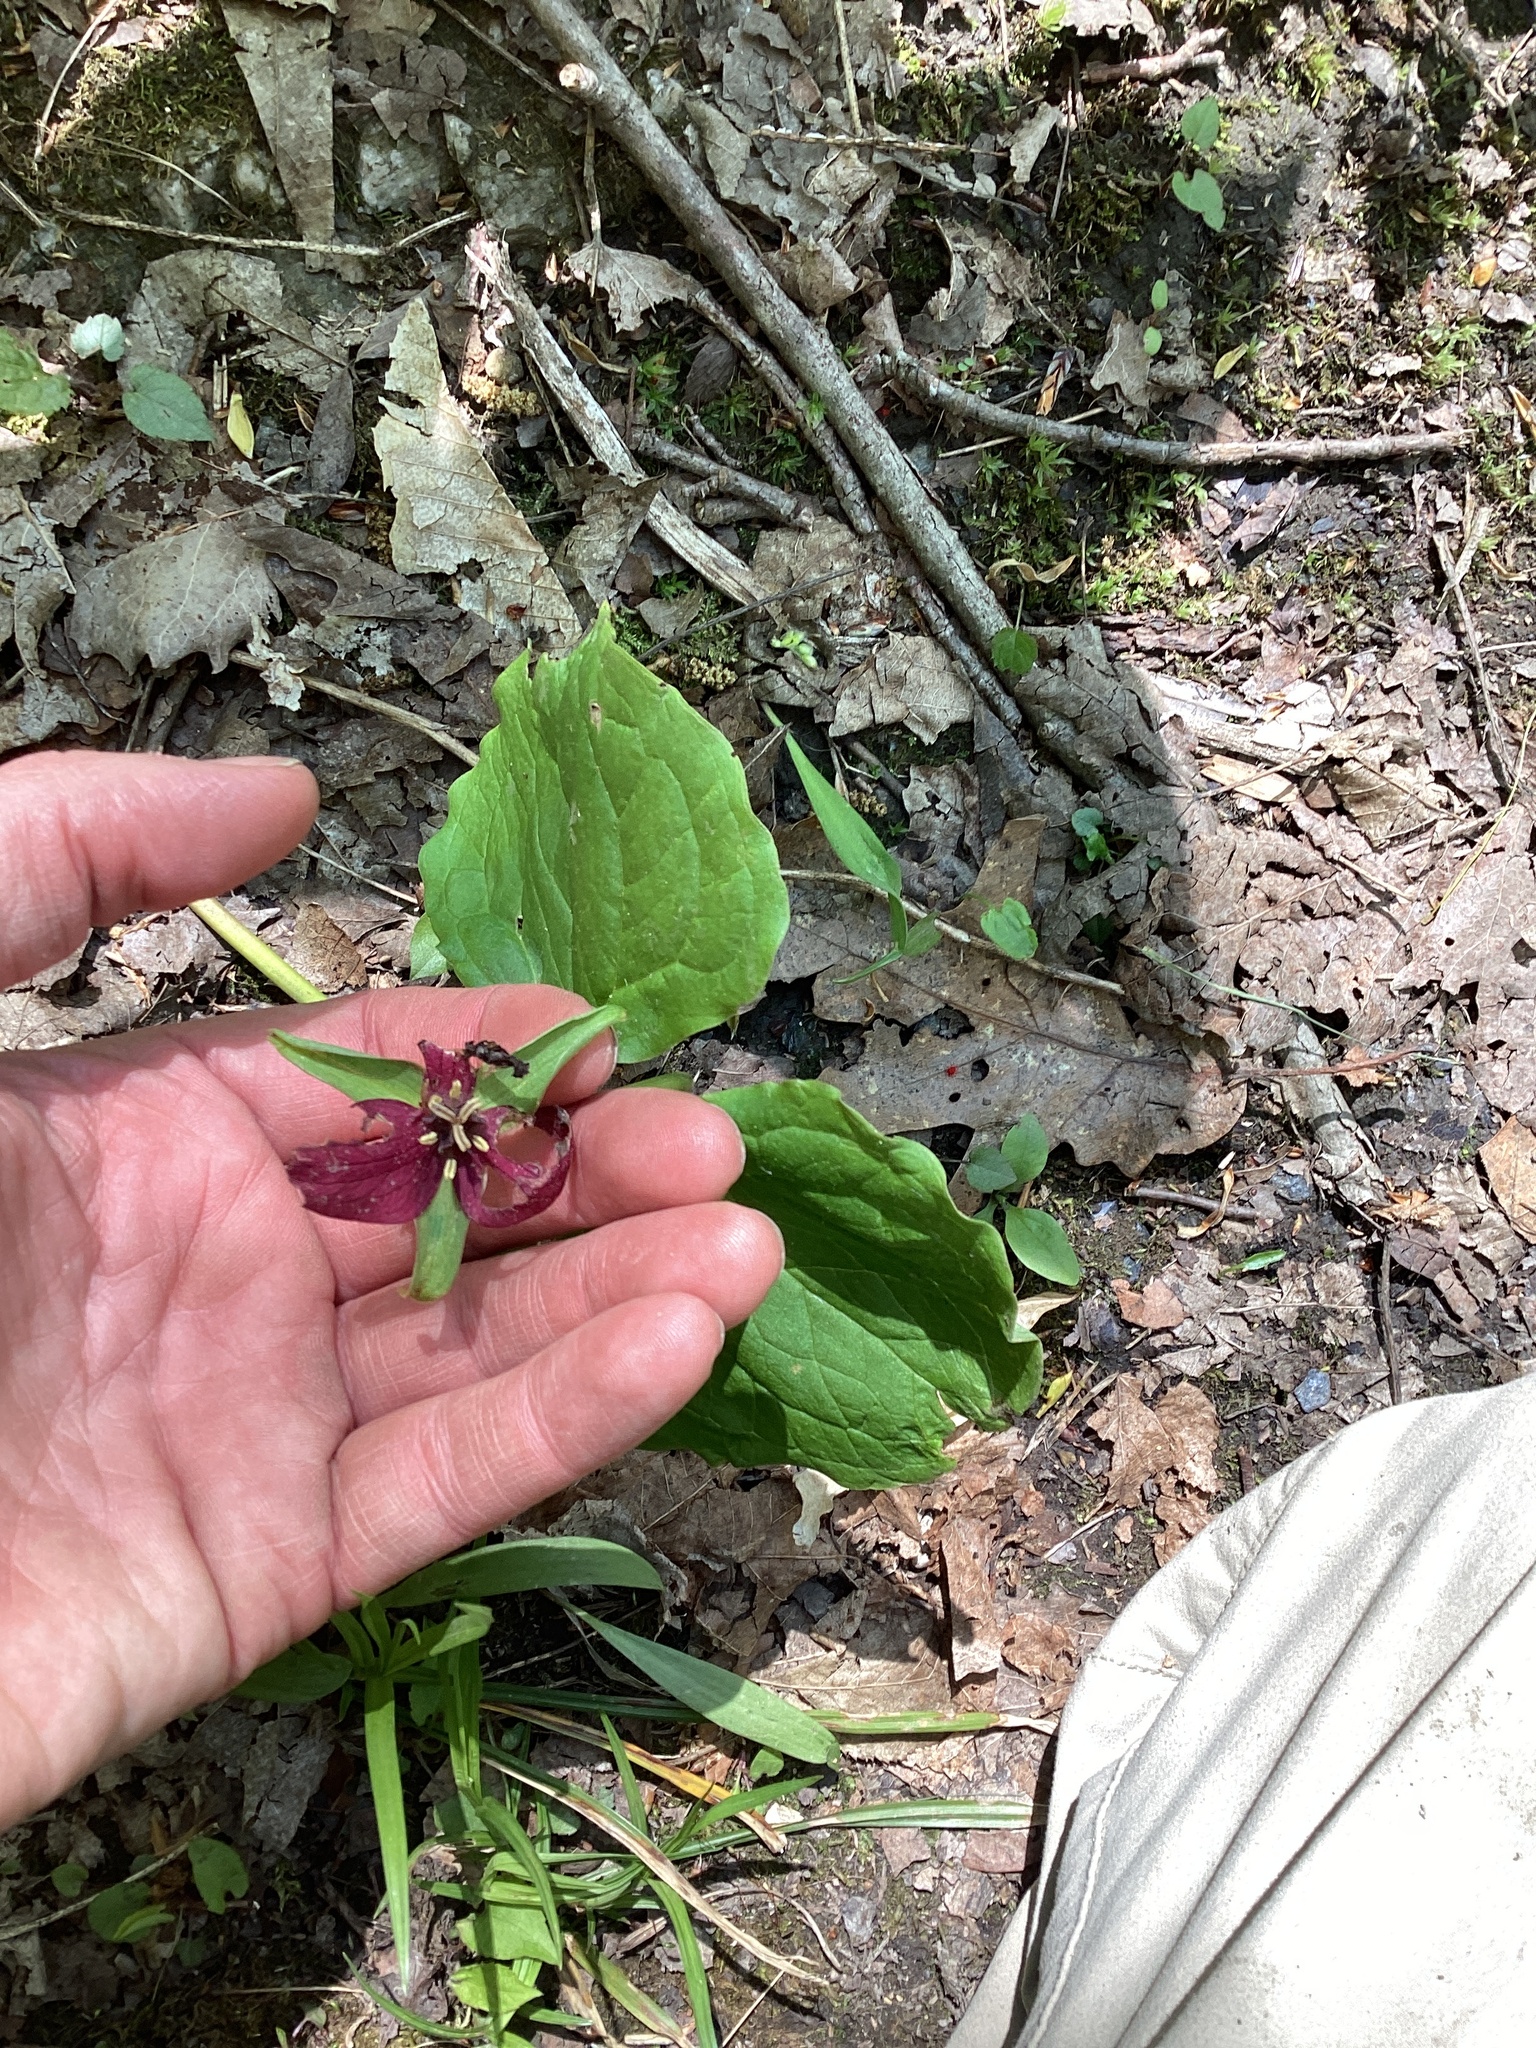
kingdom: Plantae
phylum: Tracheophyta
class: Liliopsida
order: Liliales
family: Melanthiaceae
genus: Trillium
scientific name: Trillium erectum
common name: Purple trillium
